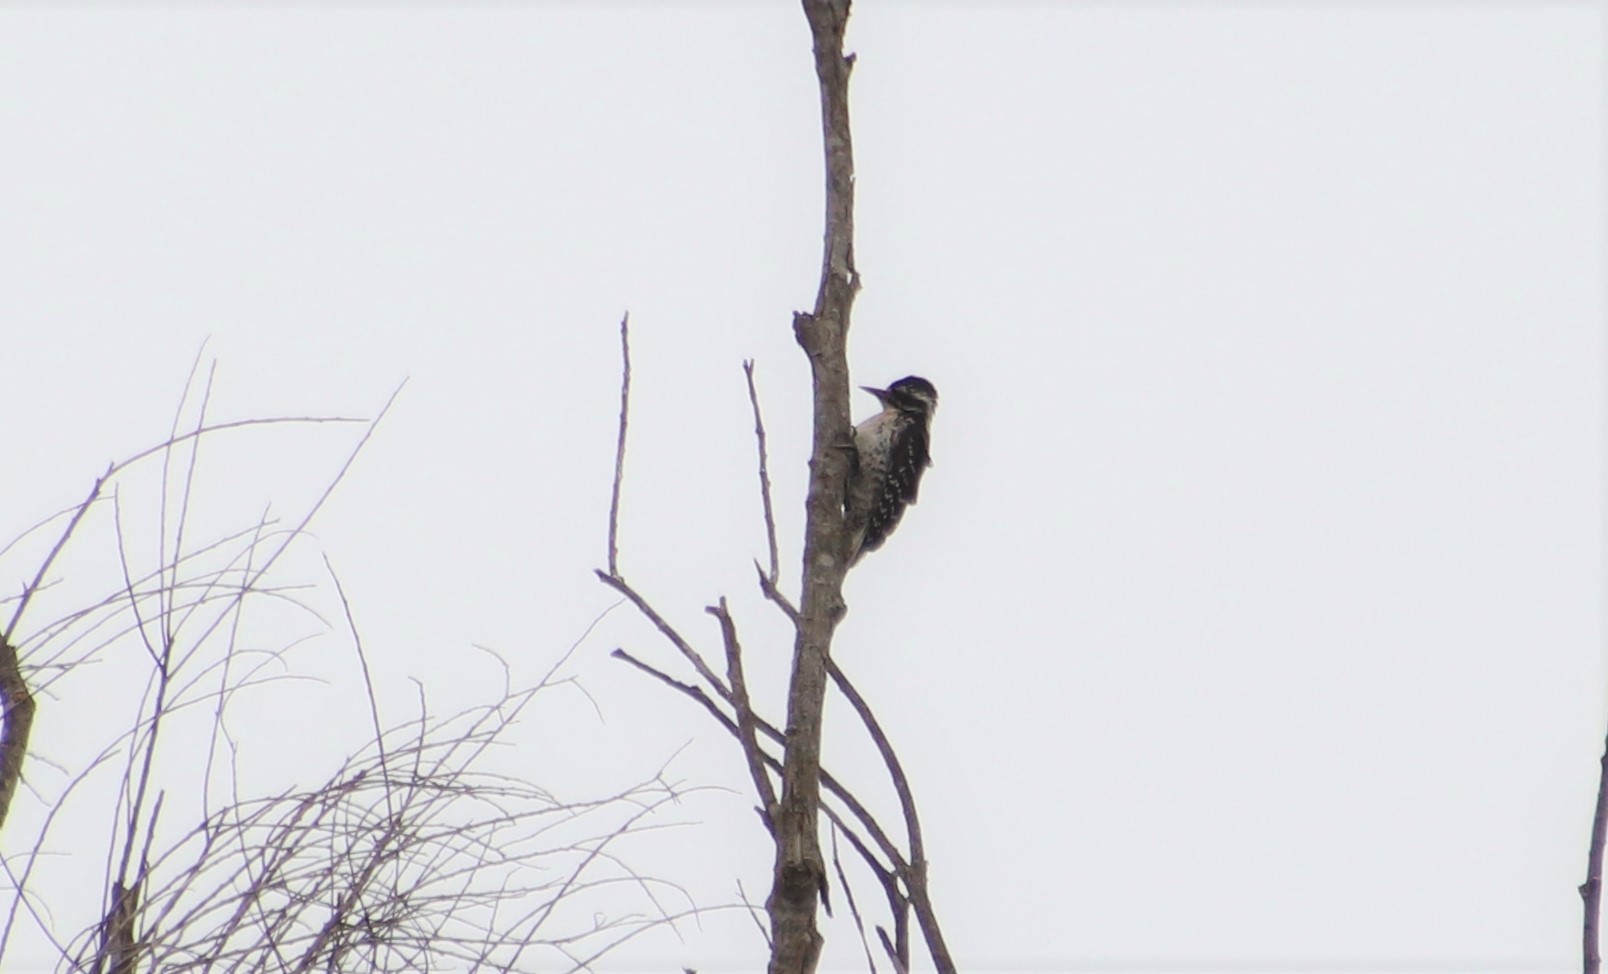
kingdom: Animalia
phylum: Chordata
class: Aves
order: Piciformes
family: Picidae
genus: Dryobates
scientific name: Dryobates nuttallii
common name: Nuttall's woodpecker
